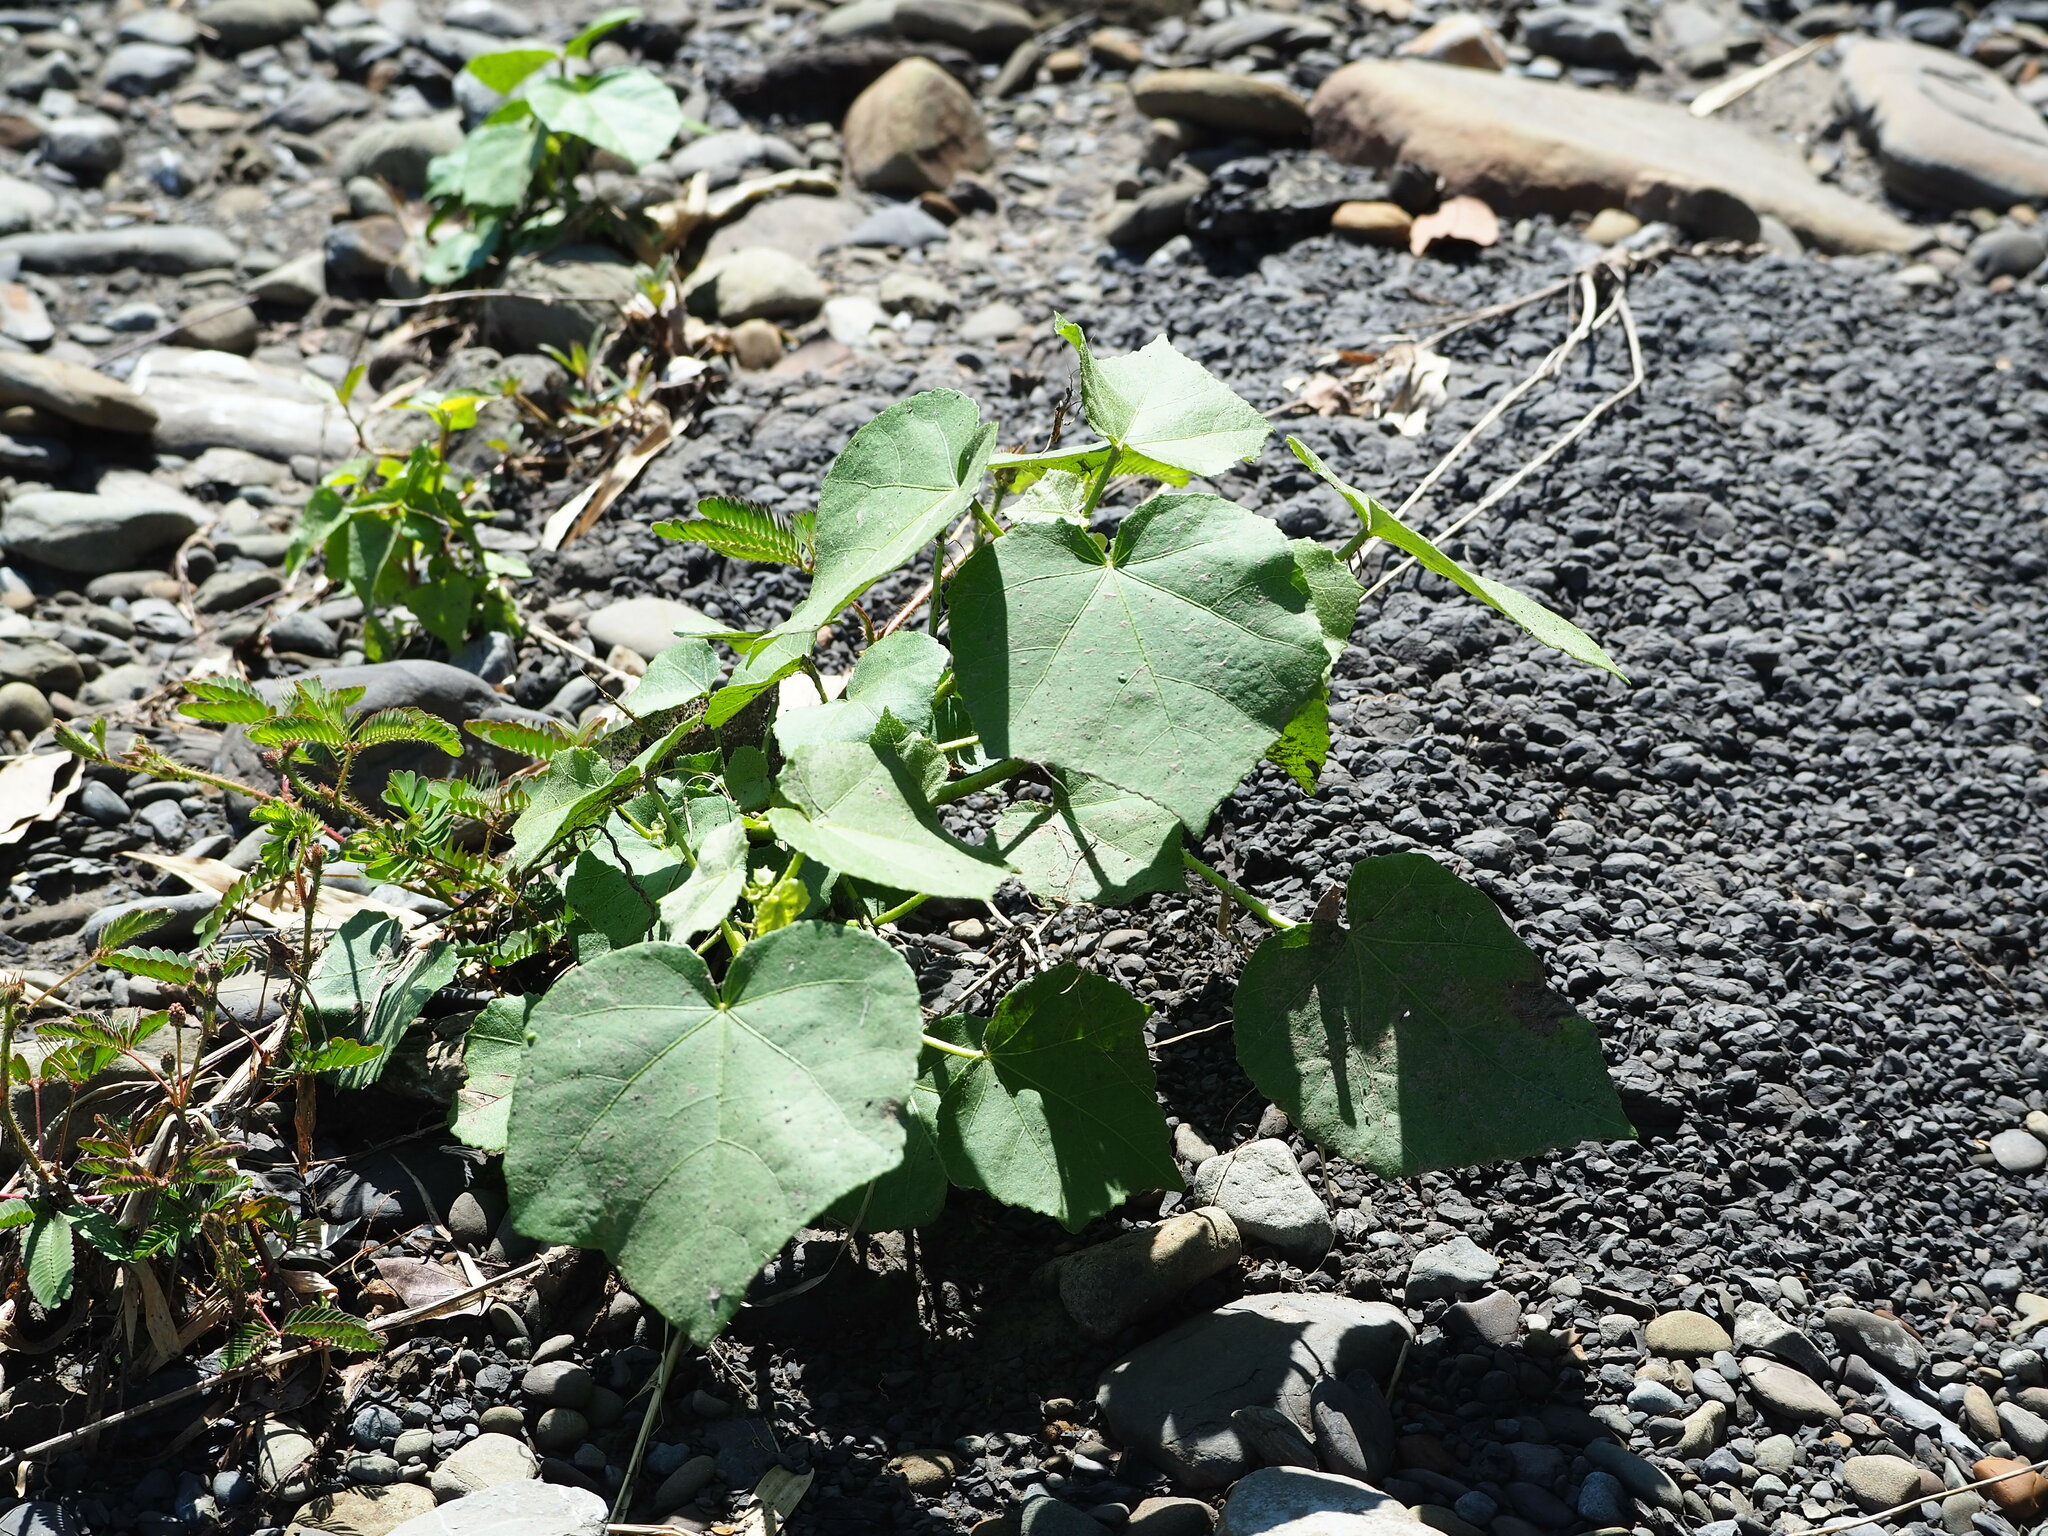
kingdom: Plantae
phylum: Tracheophyta
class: Magnoliopsida
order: Malvales
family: Malvaceae
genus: Hibiscus
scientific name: Hibiscus taiwanensis
